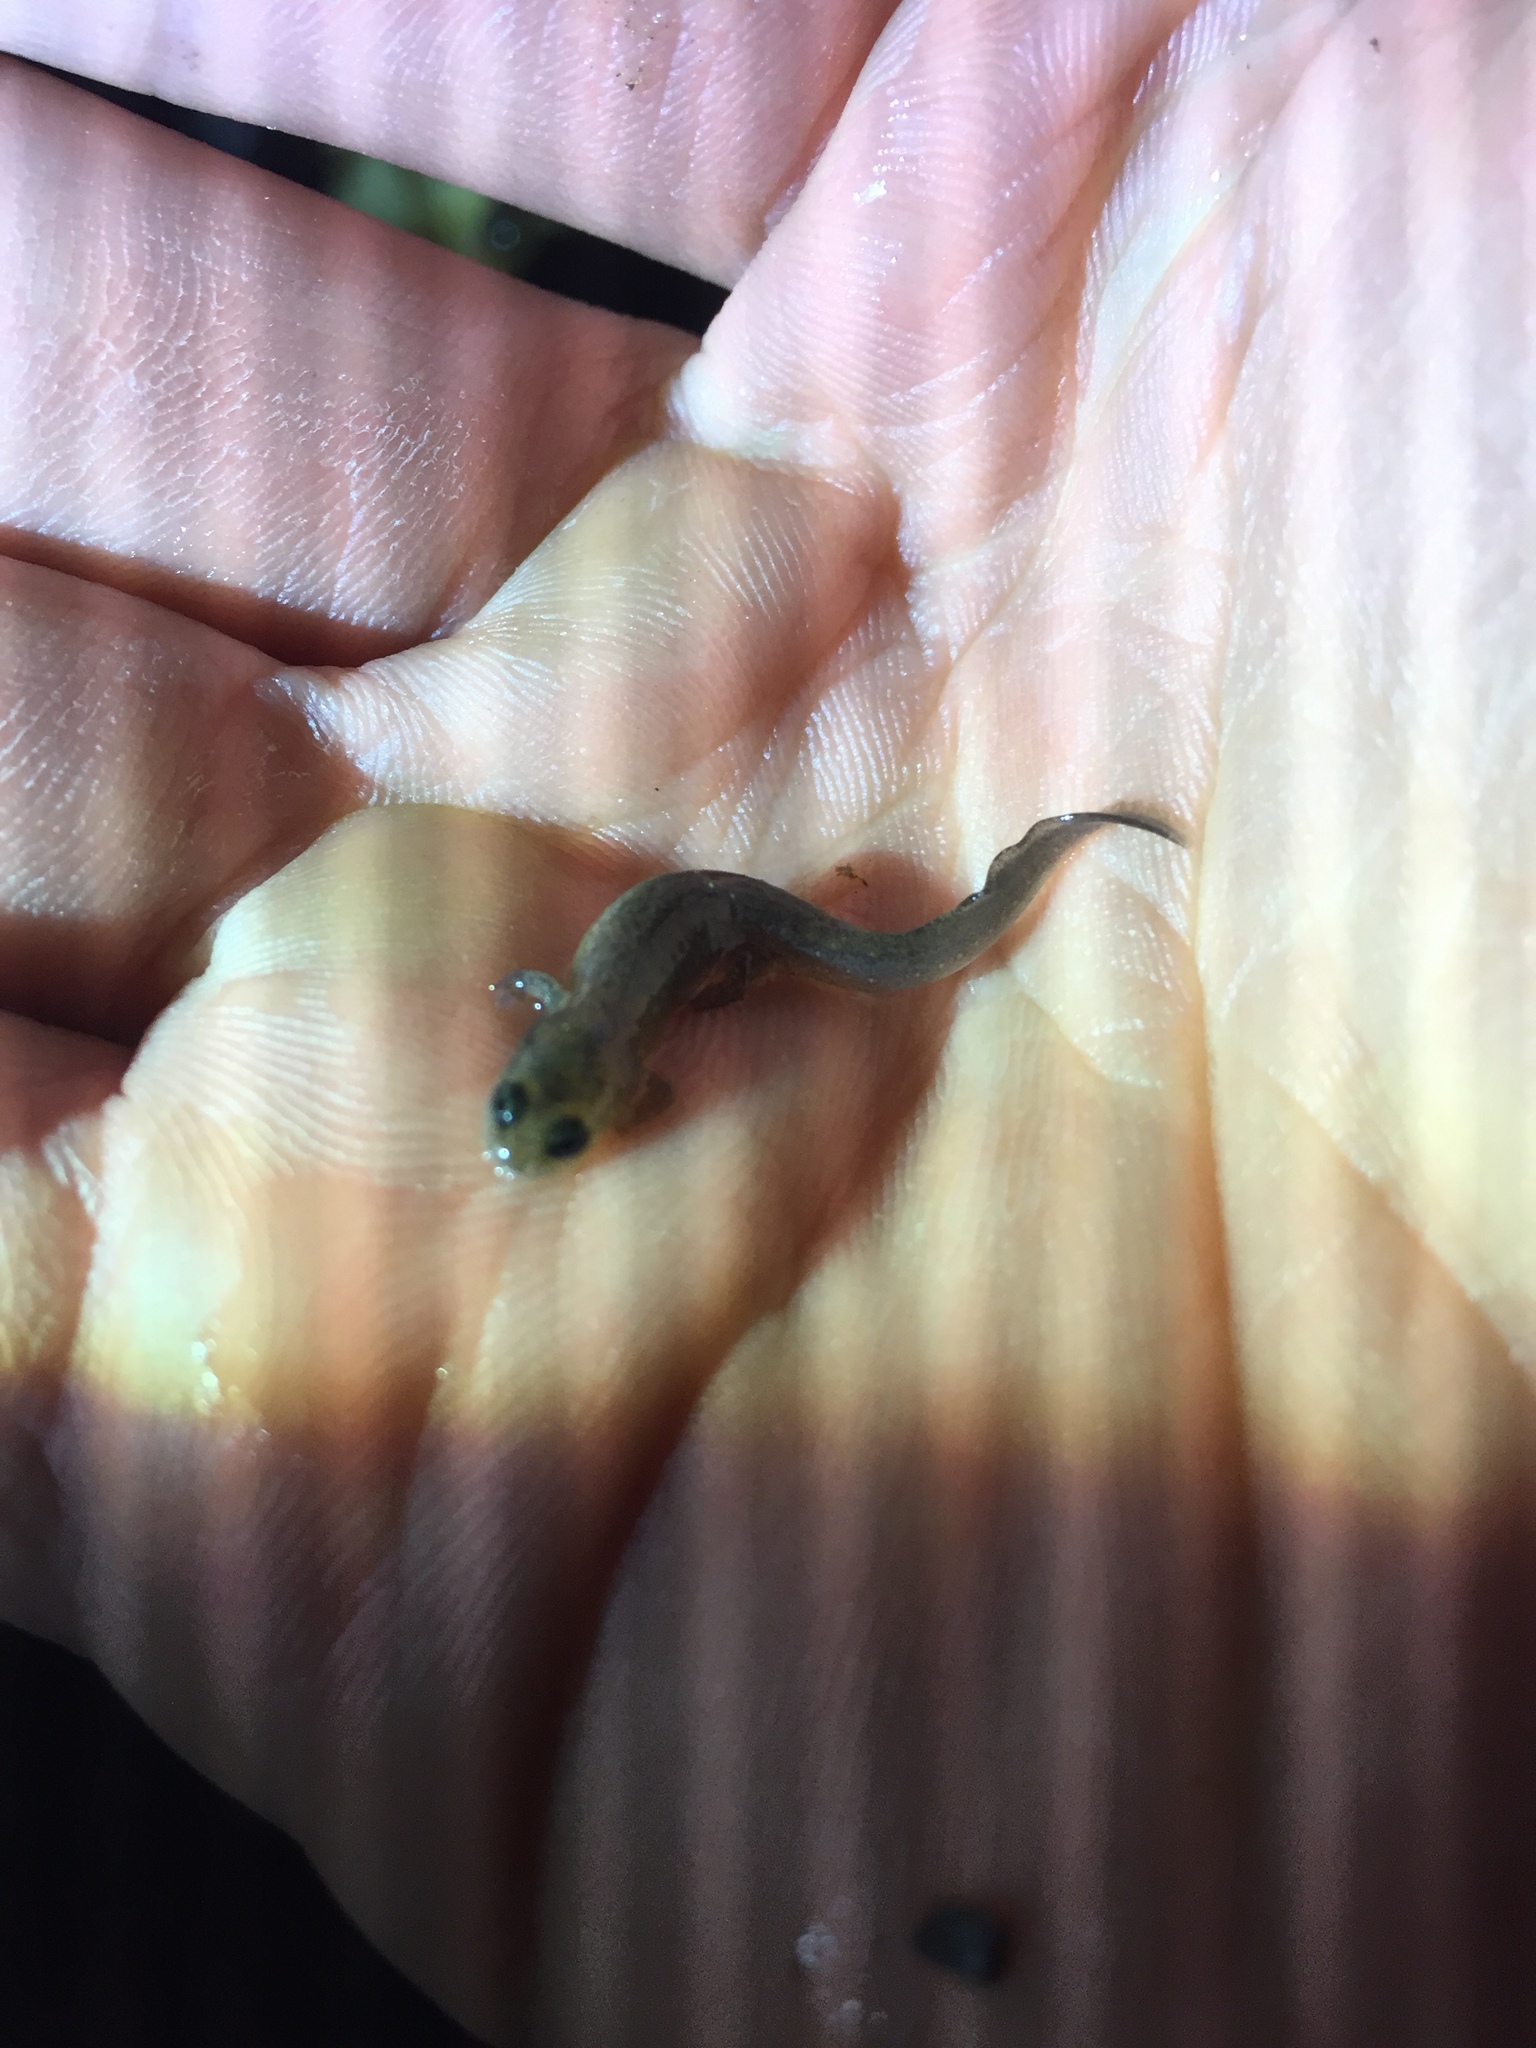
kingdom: Animalia
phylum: Chordata
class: Amphibia
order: Caudata
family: Plethodontidae
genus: Desmognathus
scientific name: Desmognathus brimleyorum
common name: Ouachita dusky salamander
